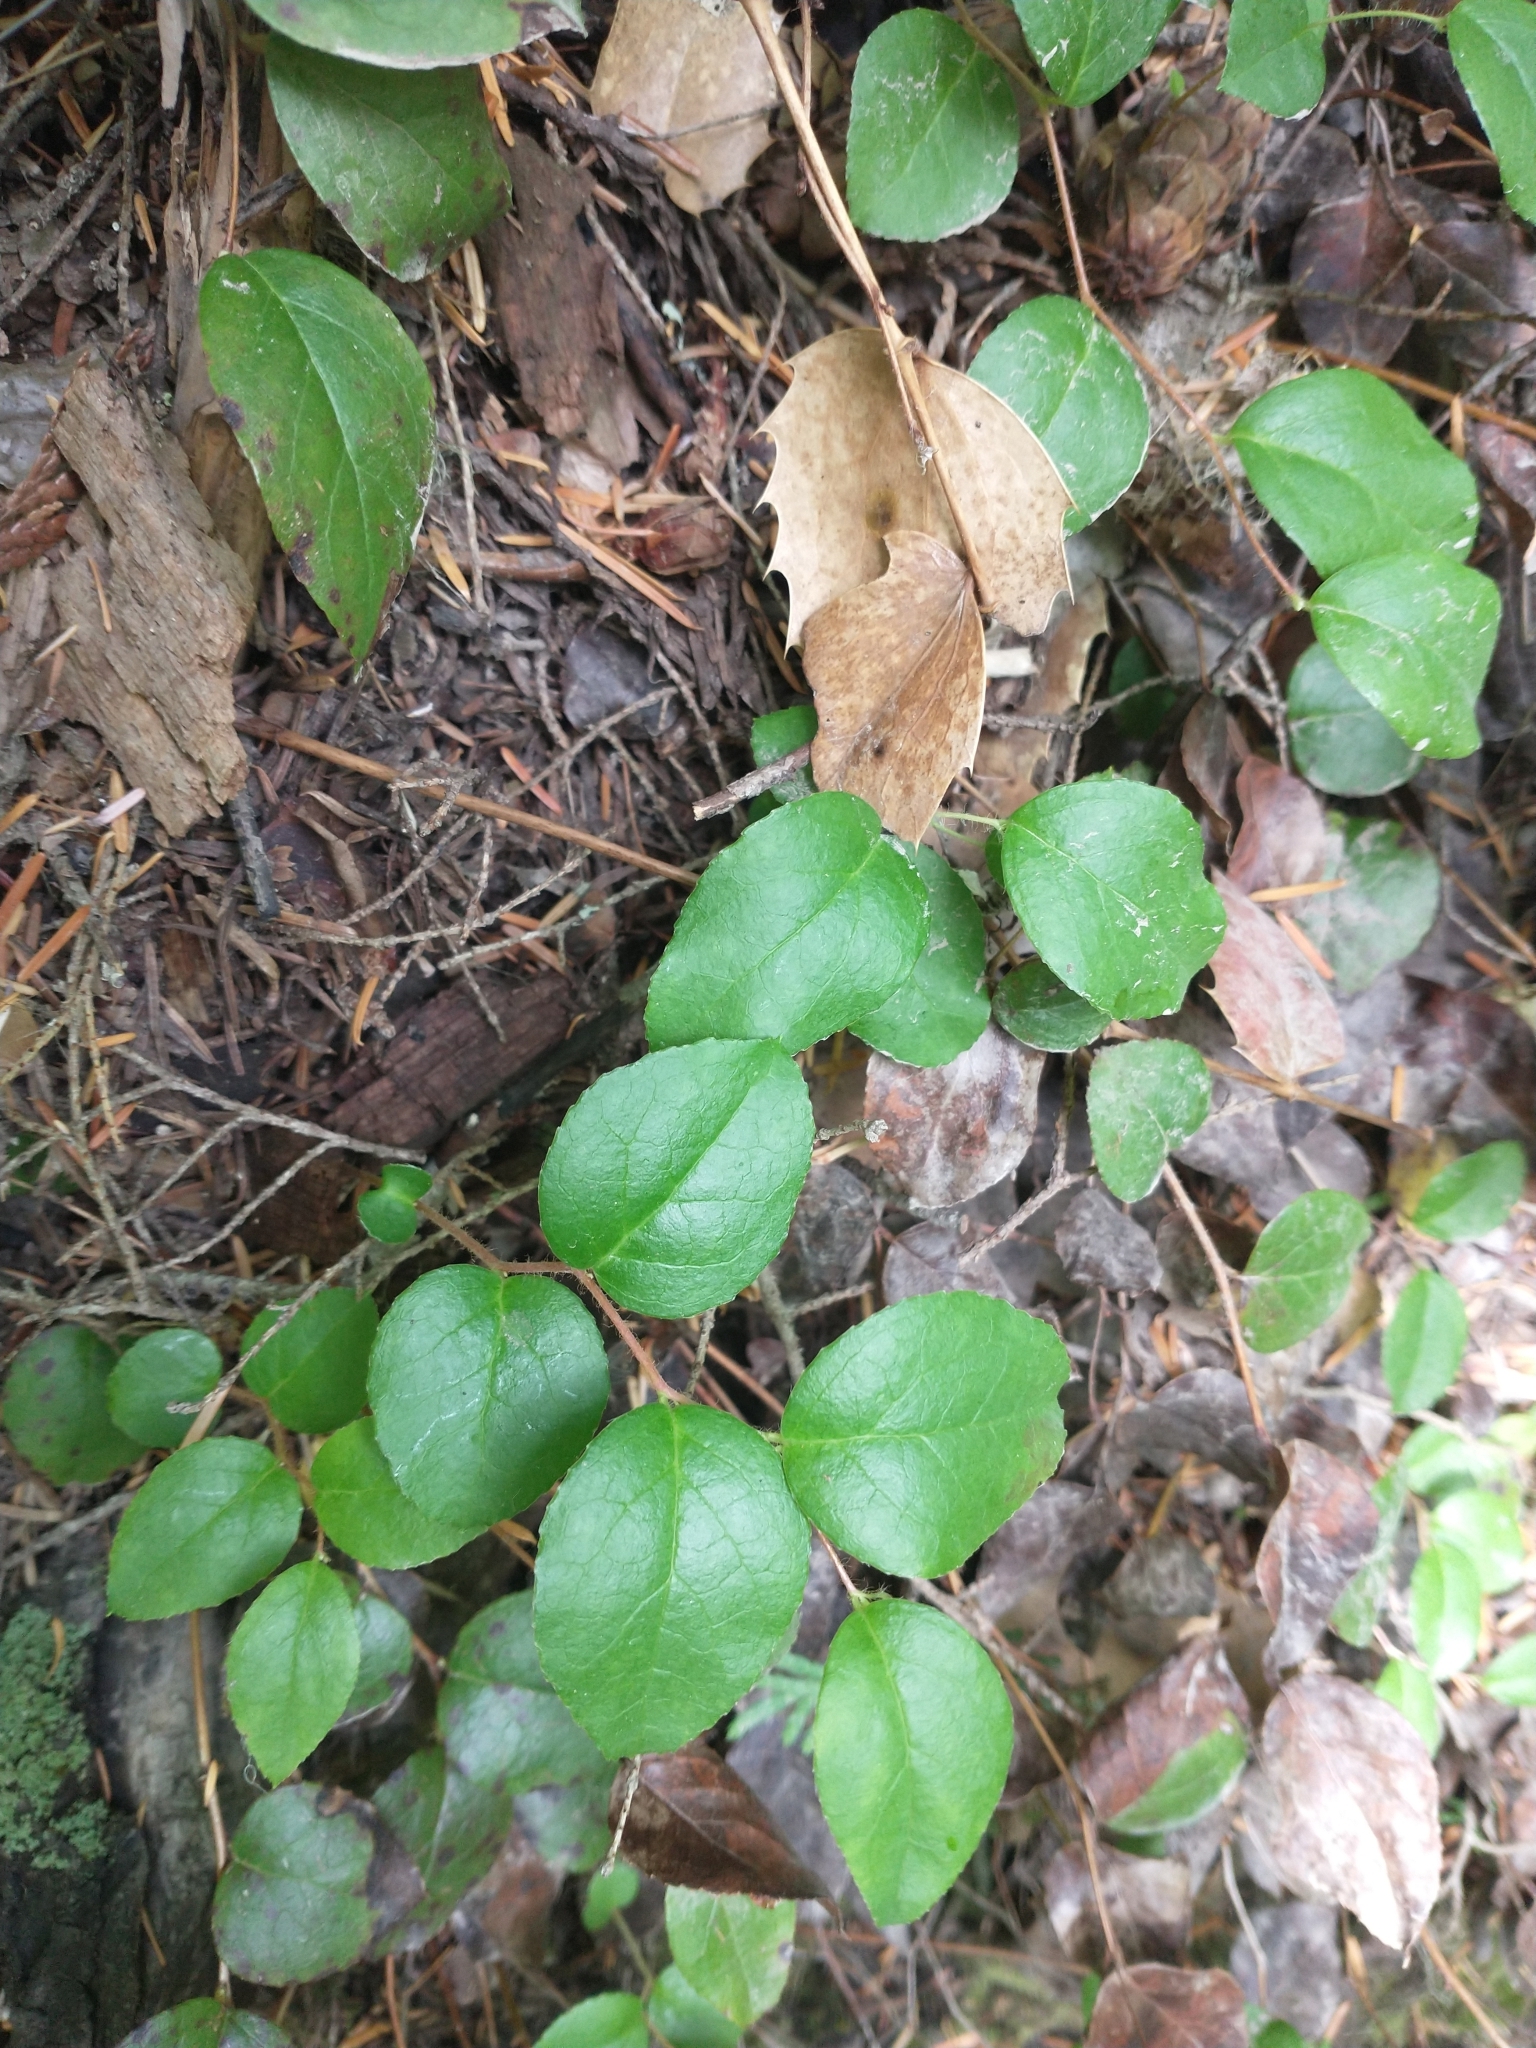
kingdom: Plantae
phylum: Tracheophyta
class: Magnoliopsida
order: Ericales
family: Ericaceae
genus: Gaultheria
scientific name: Gaultheria ovatifolia
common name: Oregon wintergreen
